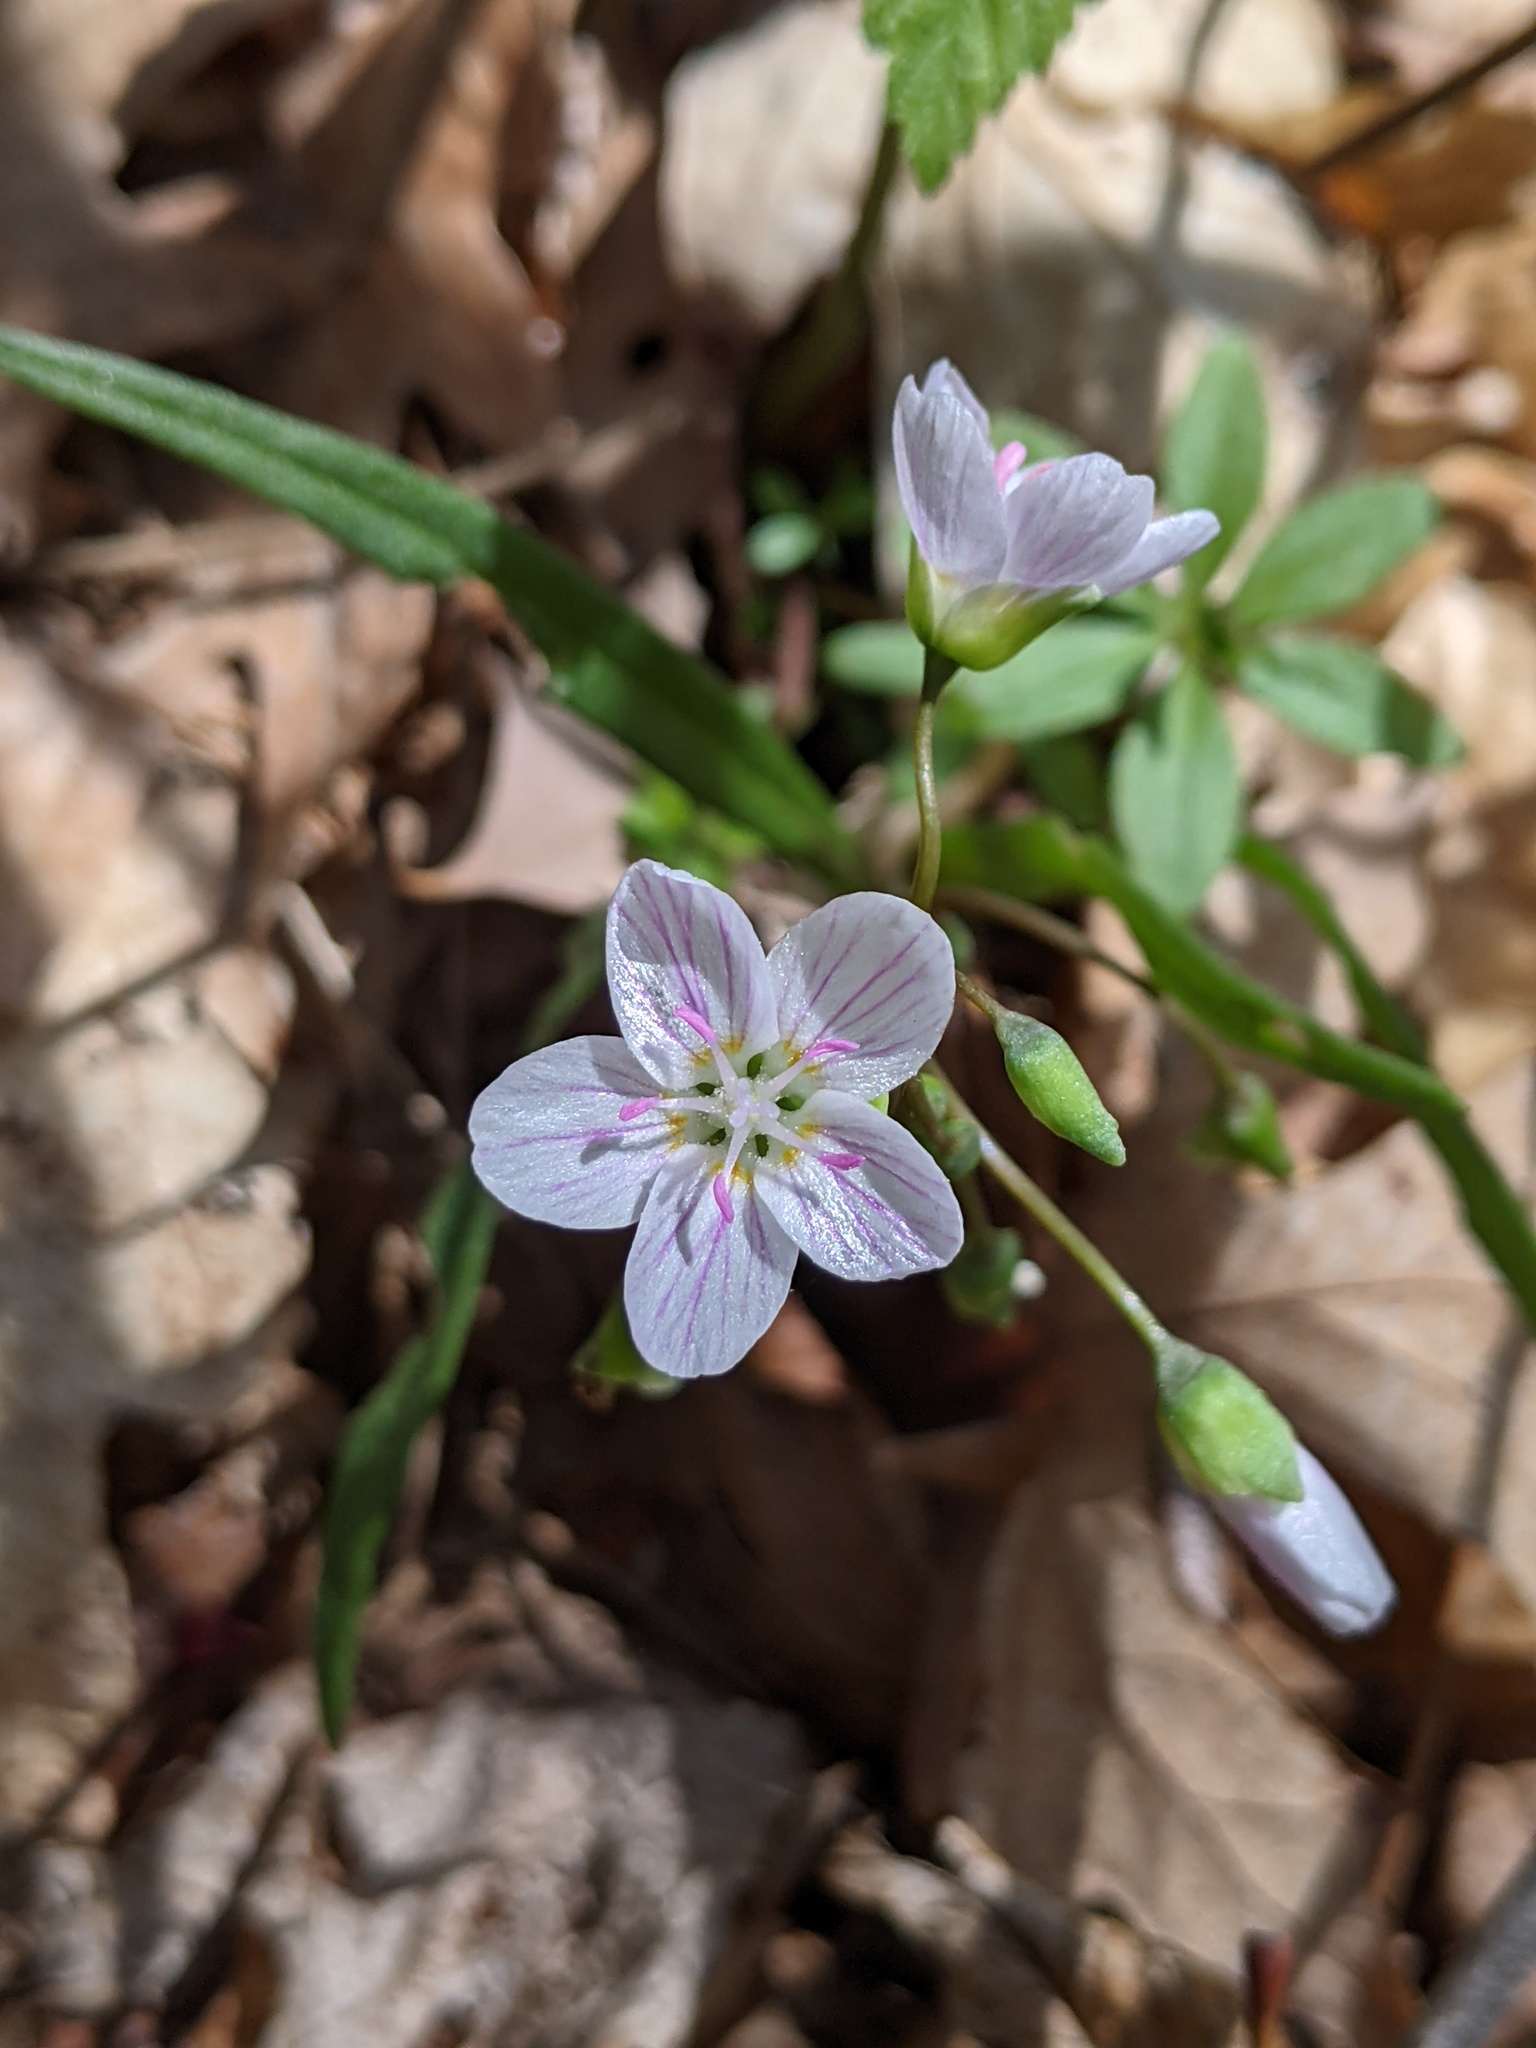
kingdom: Plantae
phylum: Tracheophyta
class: Magnoliopsida
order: Caryophyllales
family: Montiaceae
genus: Claytonia
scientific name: Claytonia virginica
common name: Virginia springbeauty
